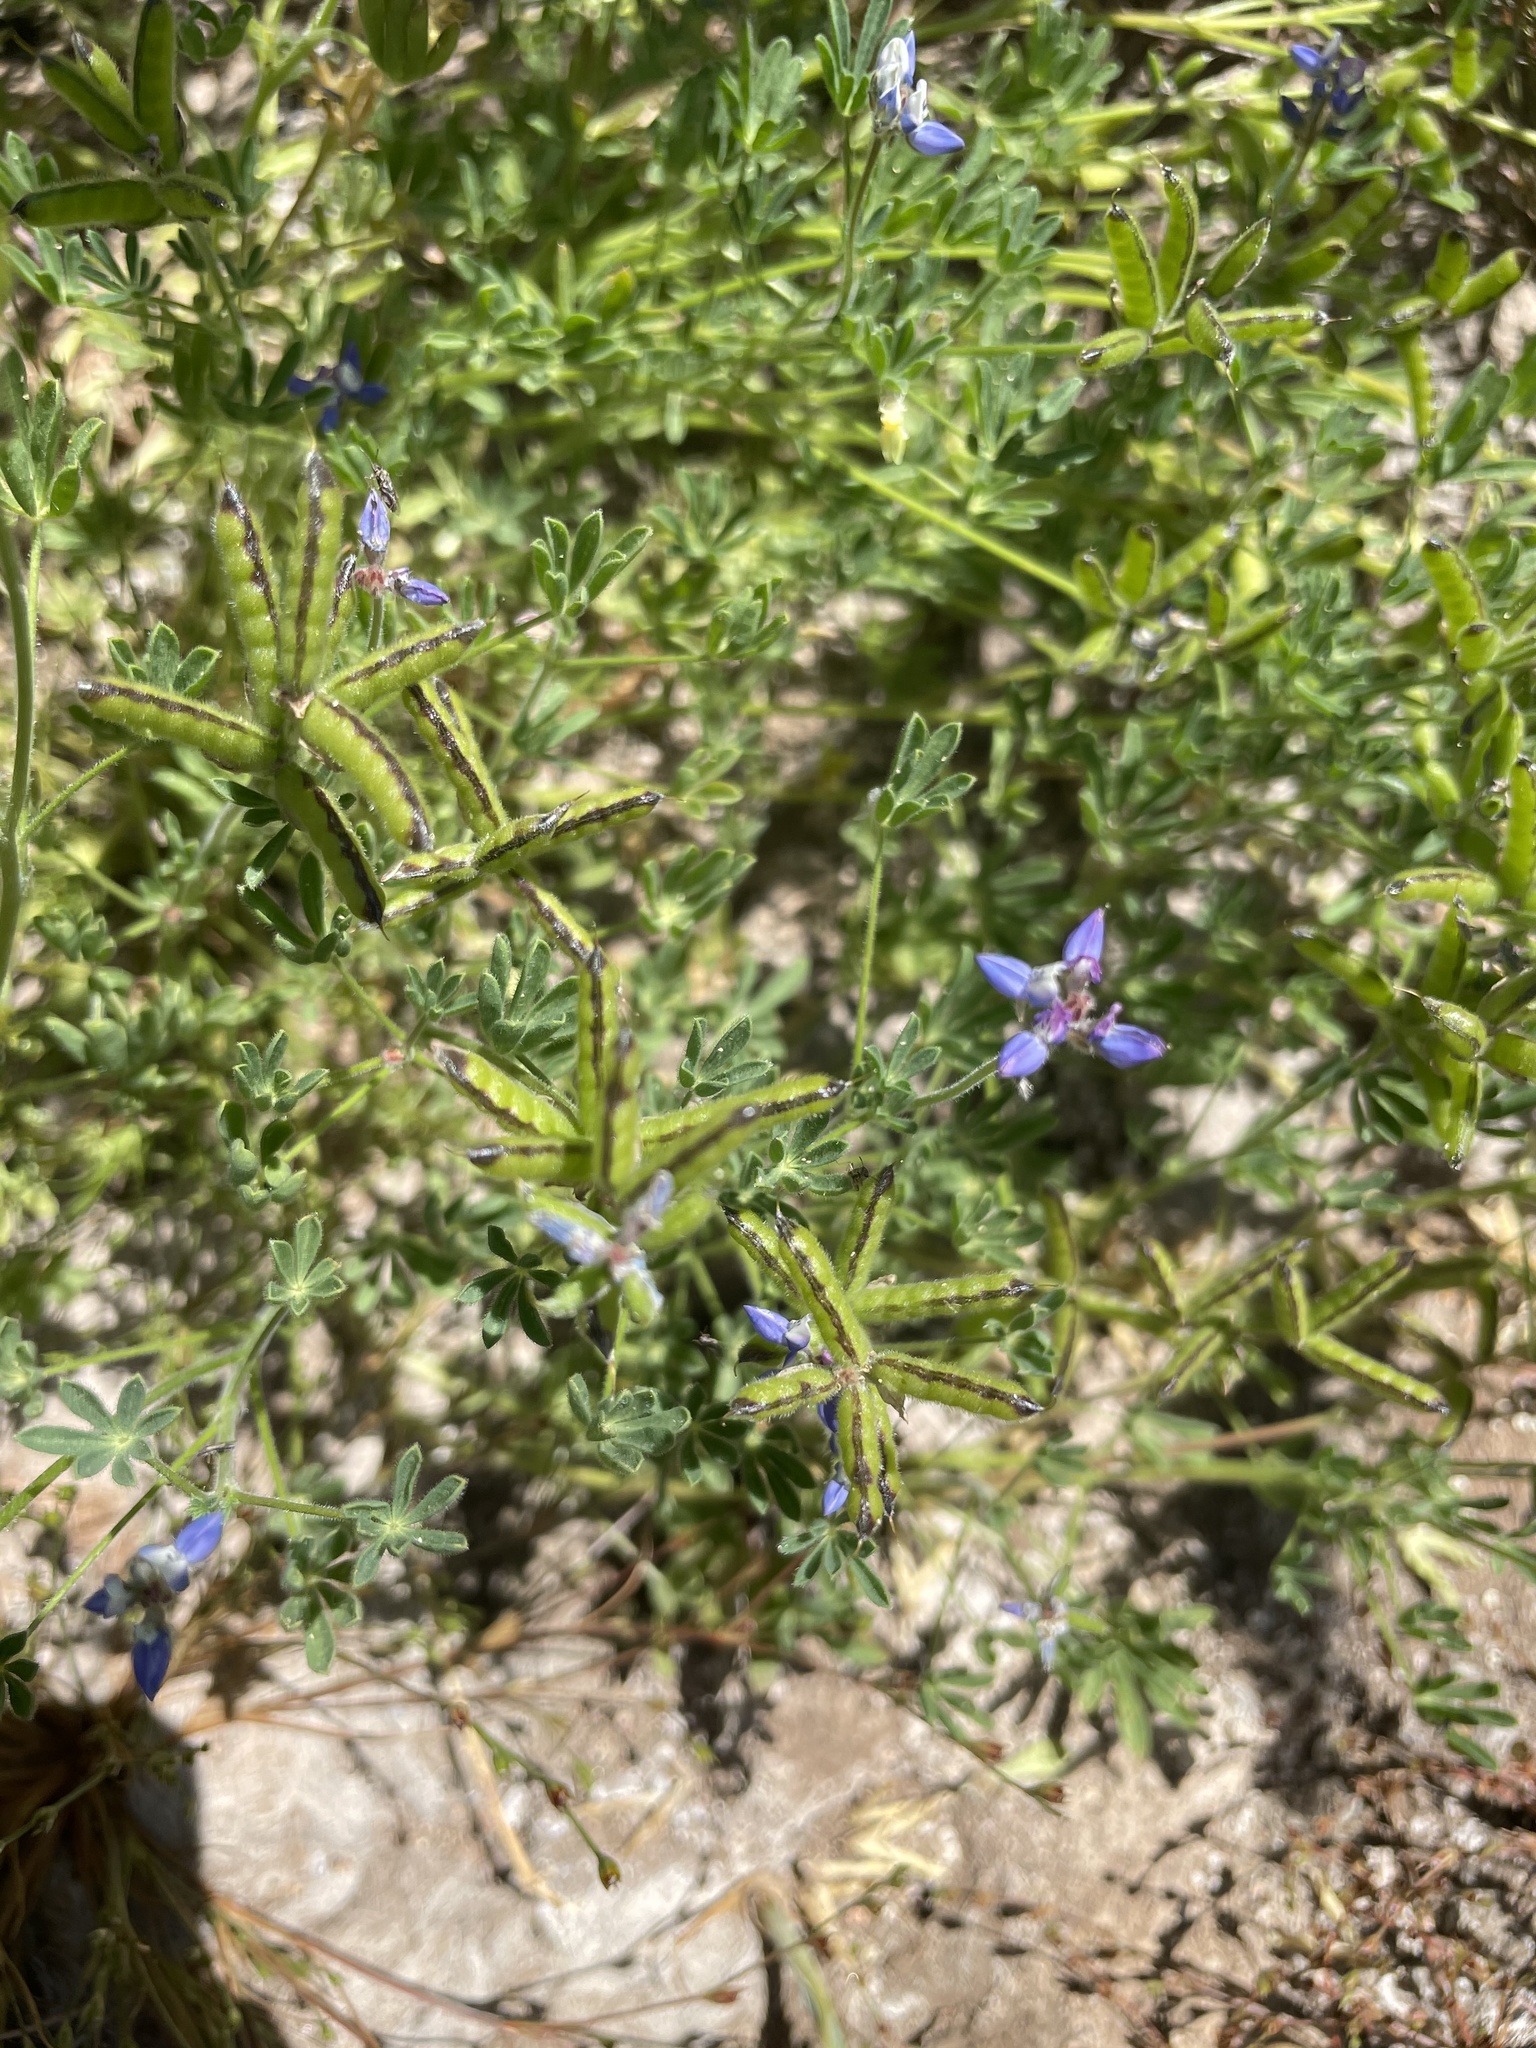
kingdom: Plantae
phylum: Tracheophyta
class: Magnoliopsida
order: Fabales
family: Fabaceae
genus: Lupinus
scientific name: Lupinus bicolor
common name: Miniature lupine
